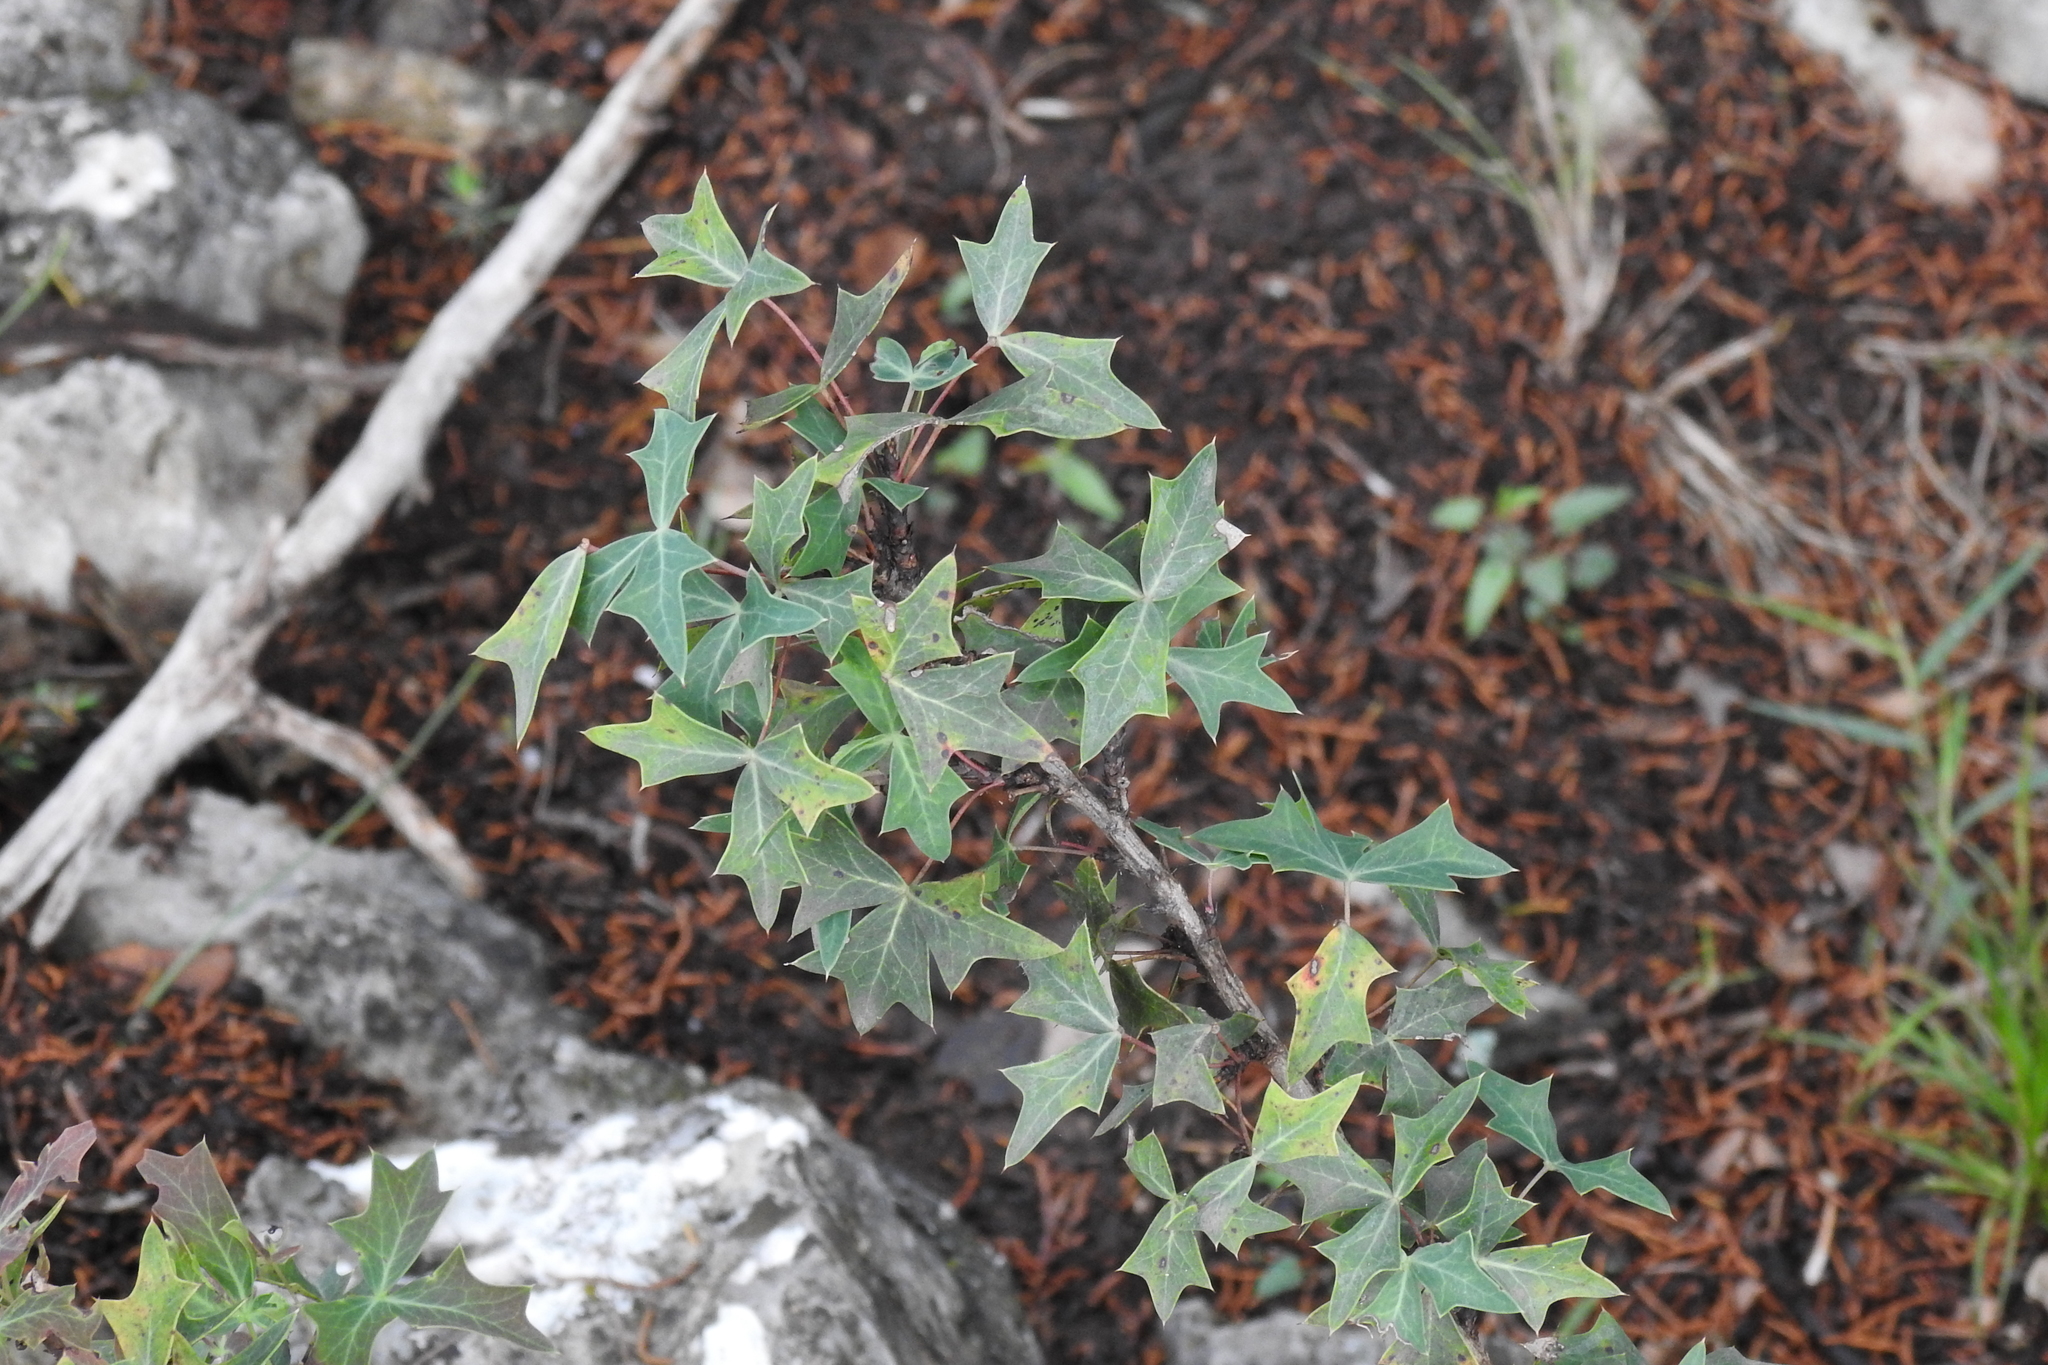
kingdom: Plantae
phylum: Tracheophyta
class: Magnoliopsida
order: Ranunculales
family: Berberidaceae
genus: Alloberberis
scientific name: Alloberberis trifoliolata
